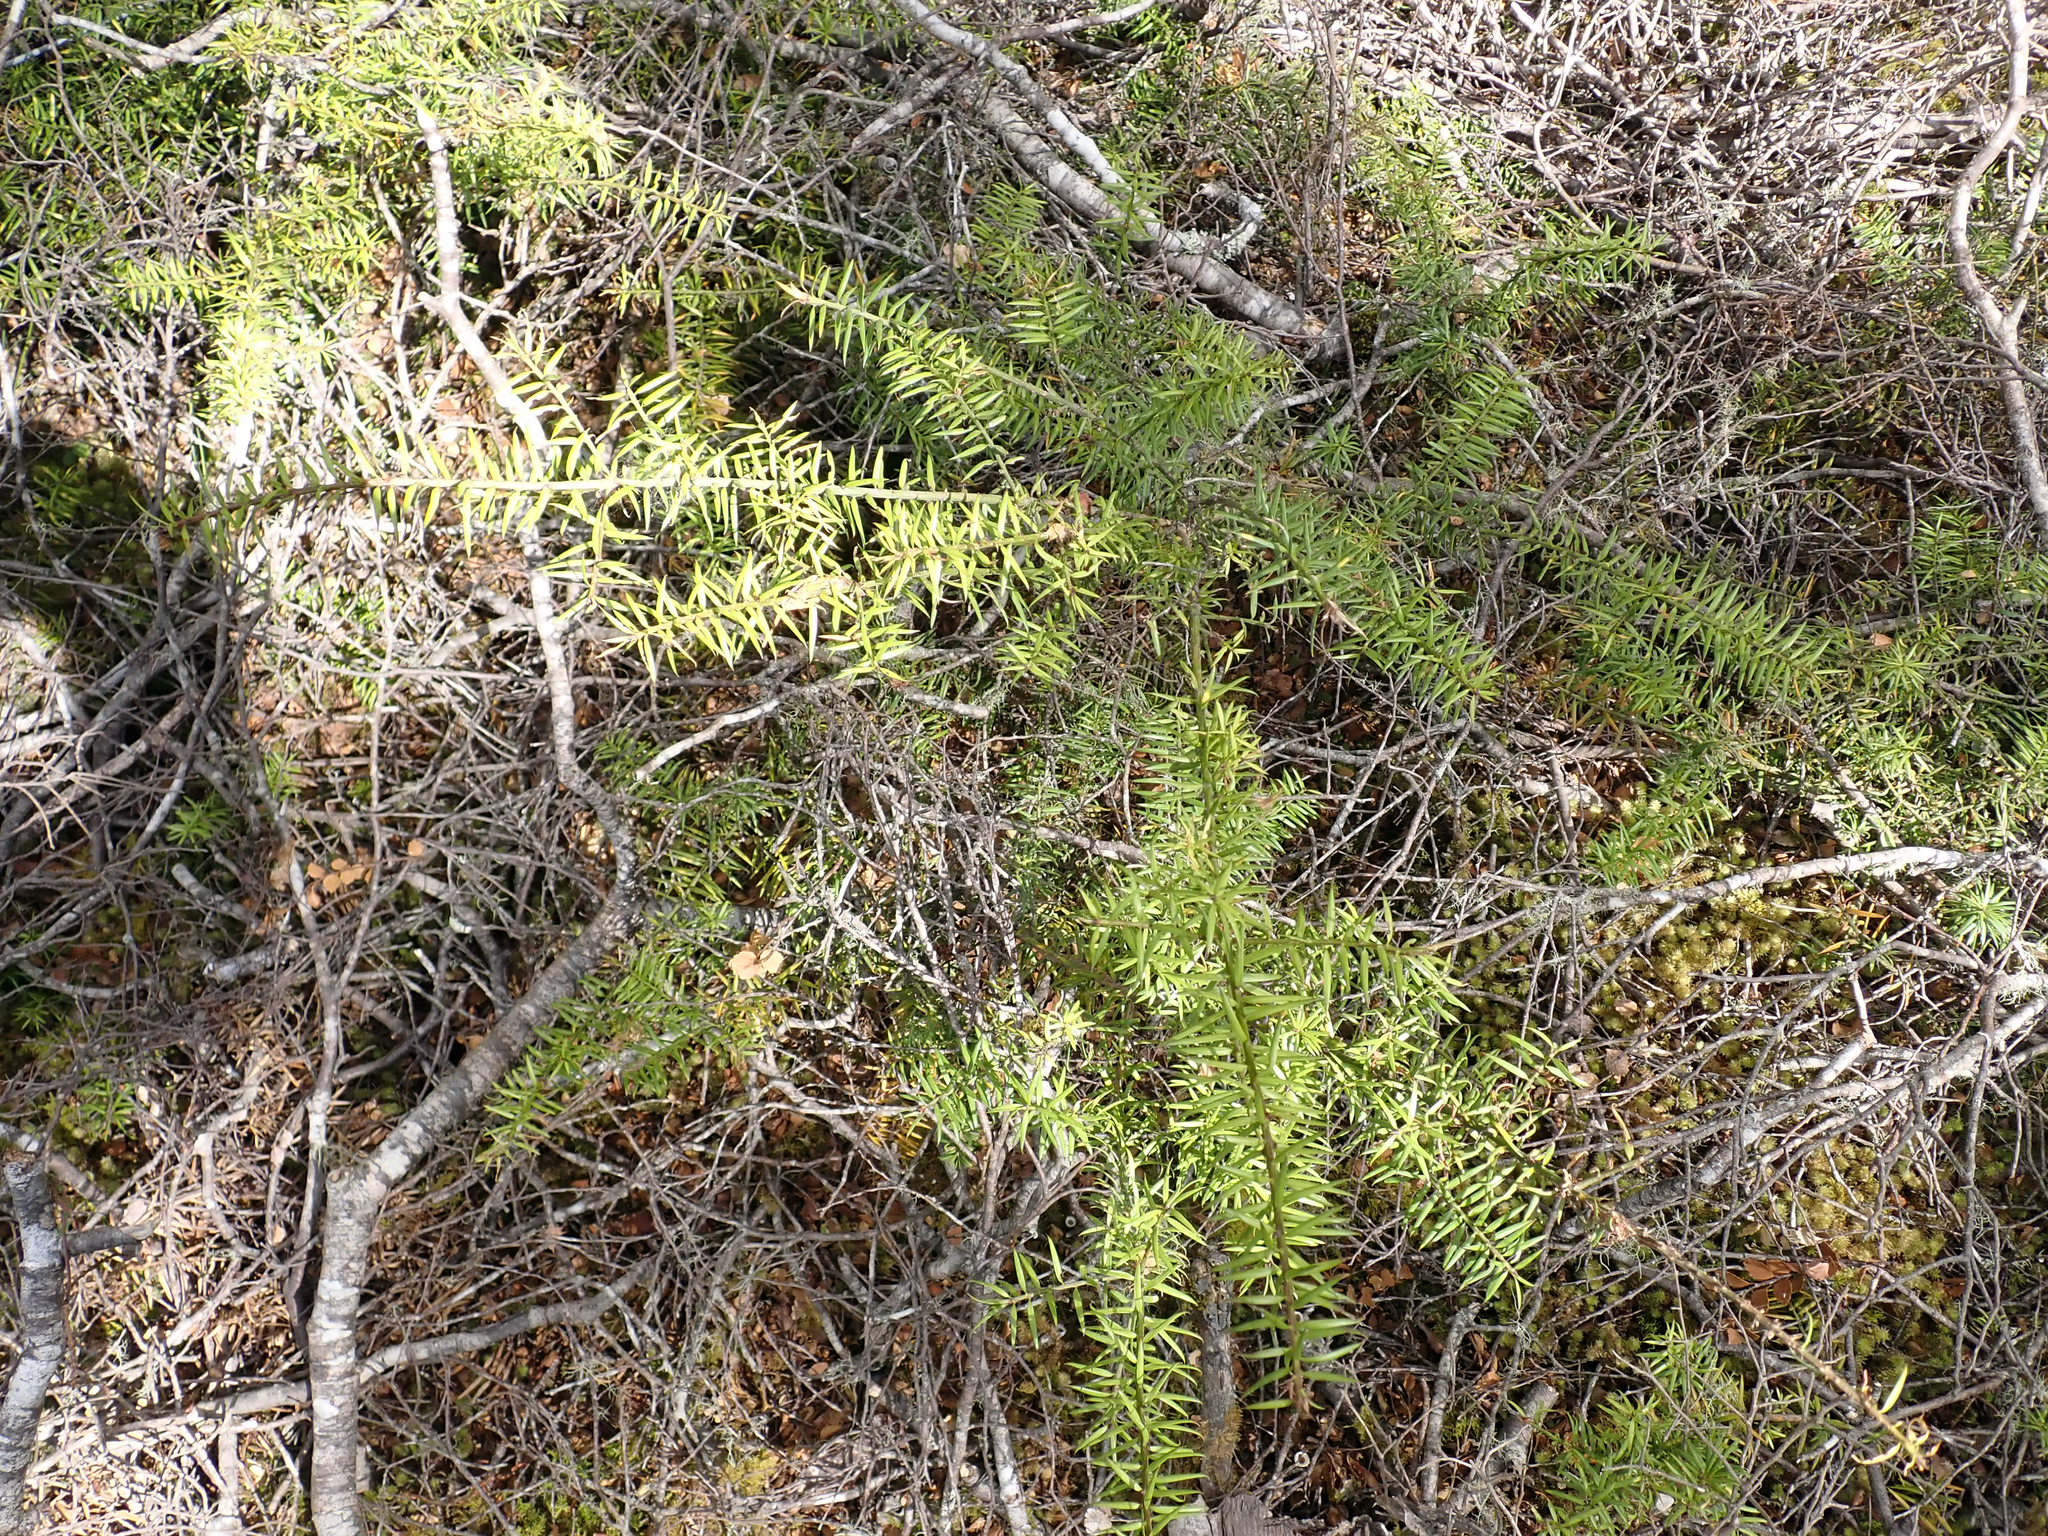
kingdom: Plantae
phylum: Tracheophyta
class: Pinopsida
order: Pinales
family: Podocarpaceae
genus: Podocarpus
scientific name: Podocarpus acutifolius
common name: Needle-leaved totara
